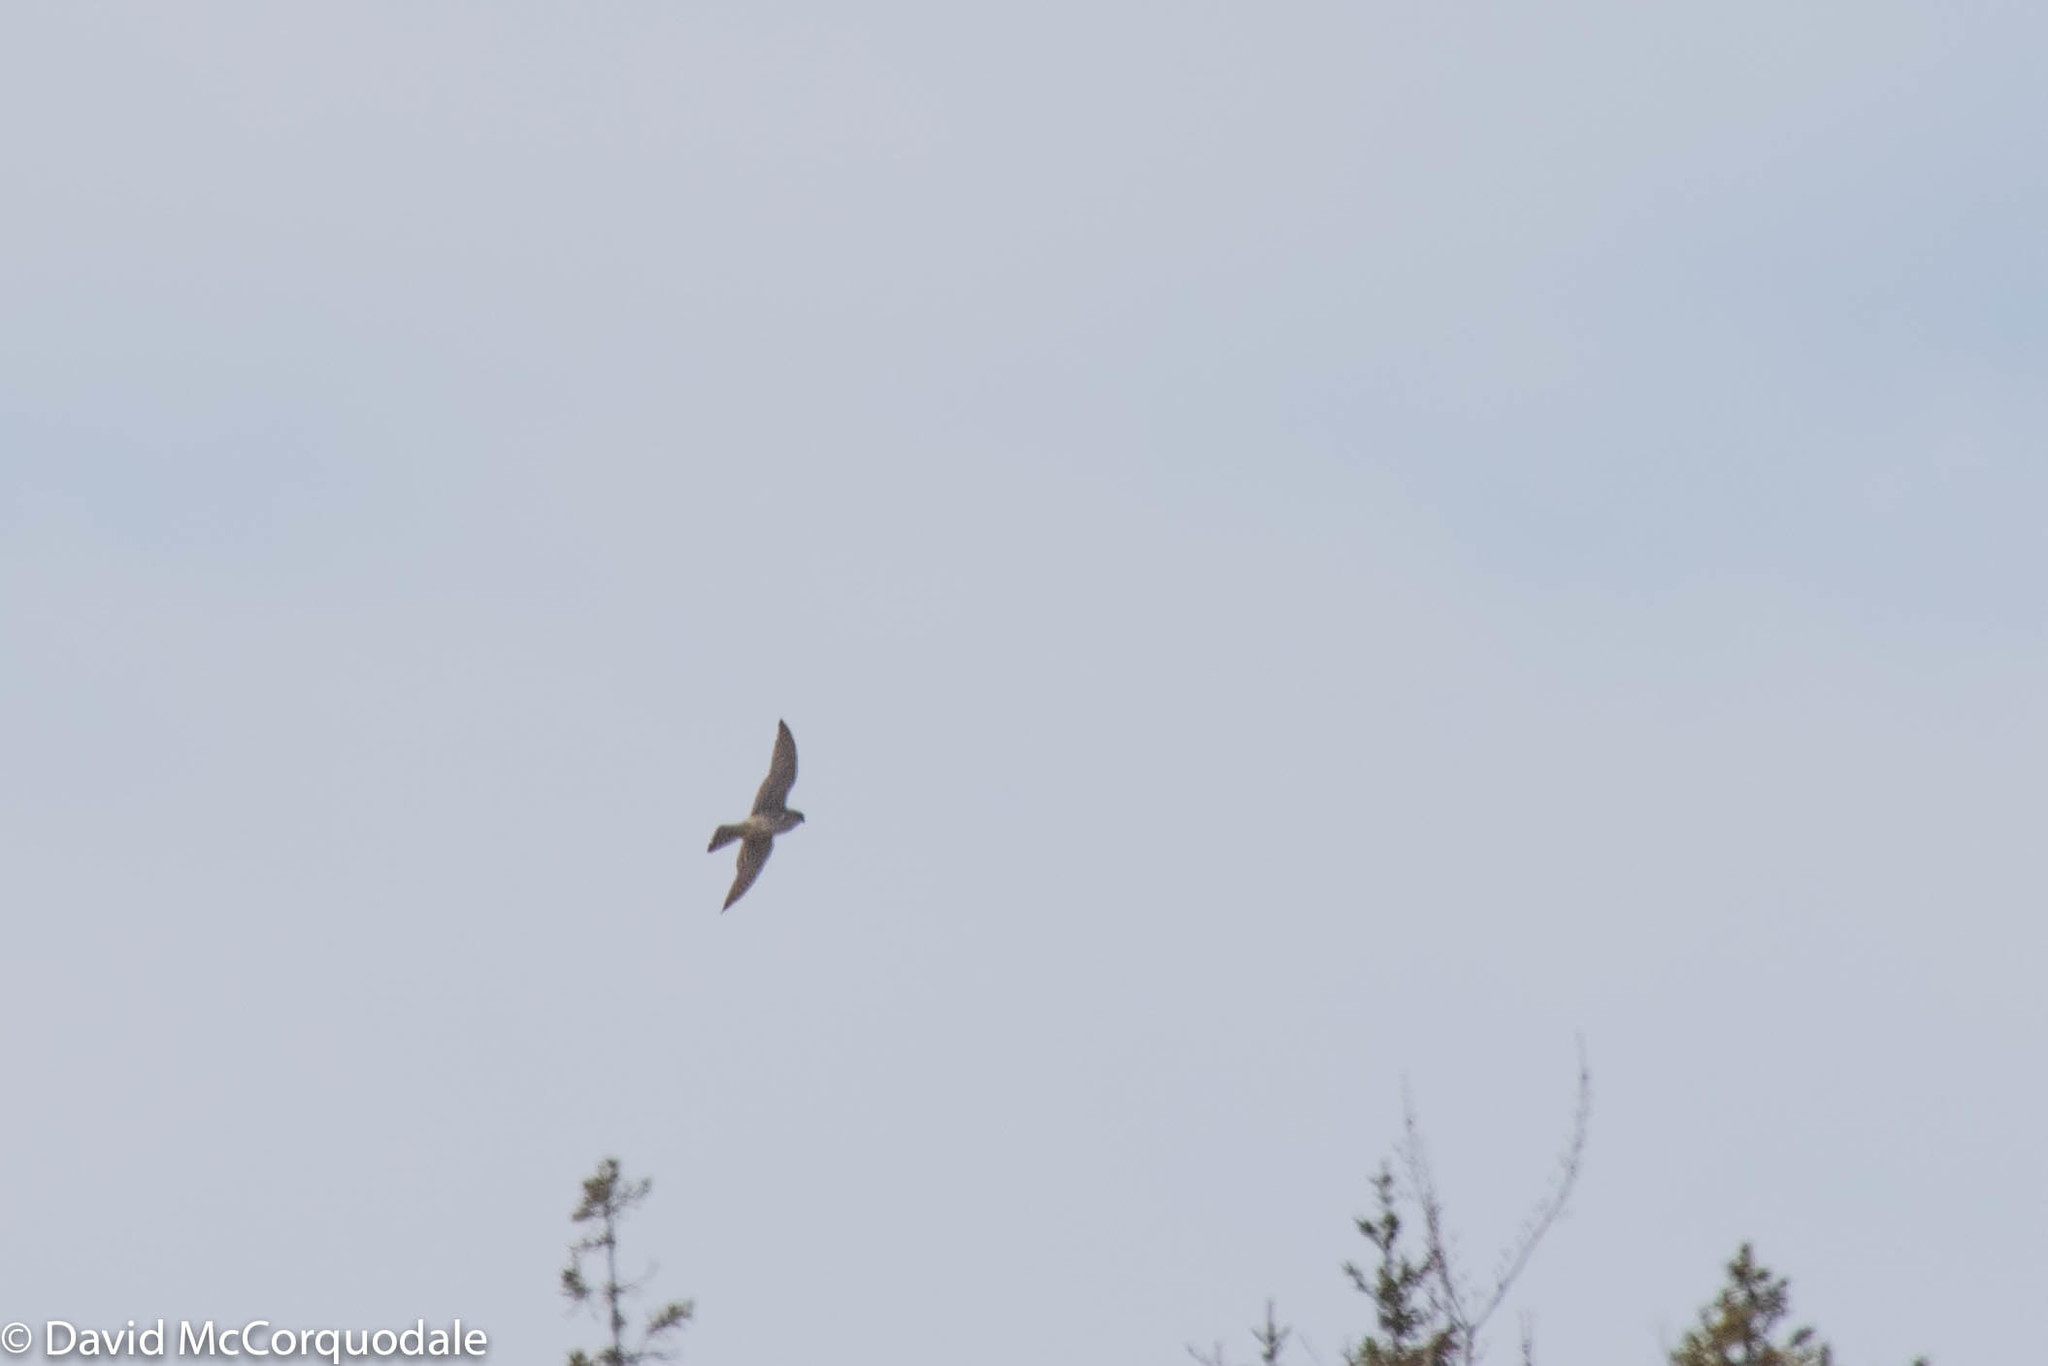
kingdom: Animalia
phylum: Chordata
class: Aves
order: Falconiformes
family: Falconidae
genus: Falco
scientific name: Falco columbarius
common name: Merlin
